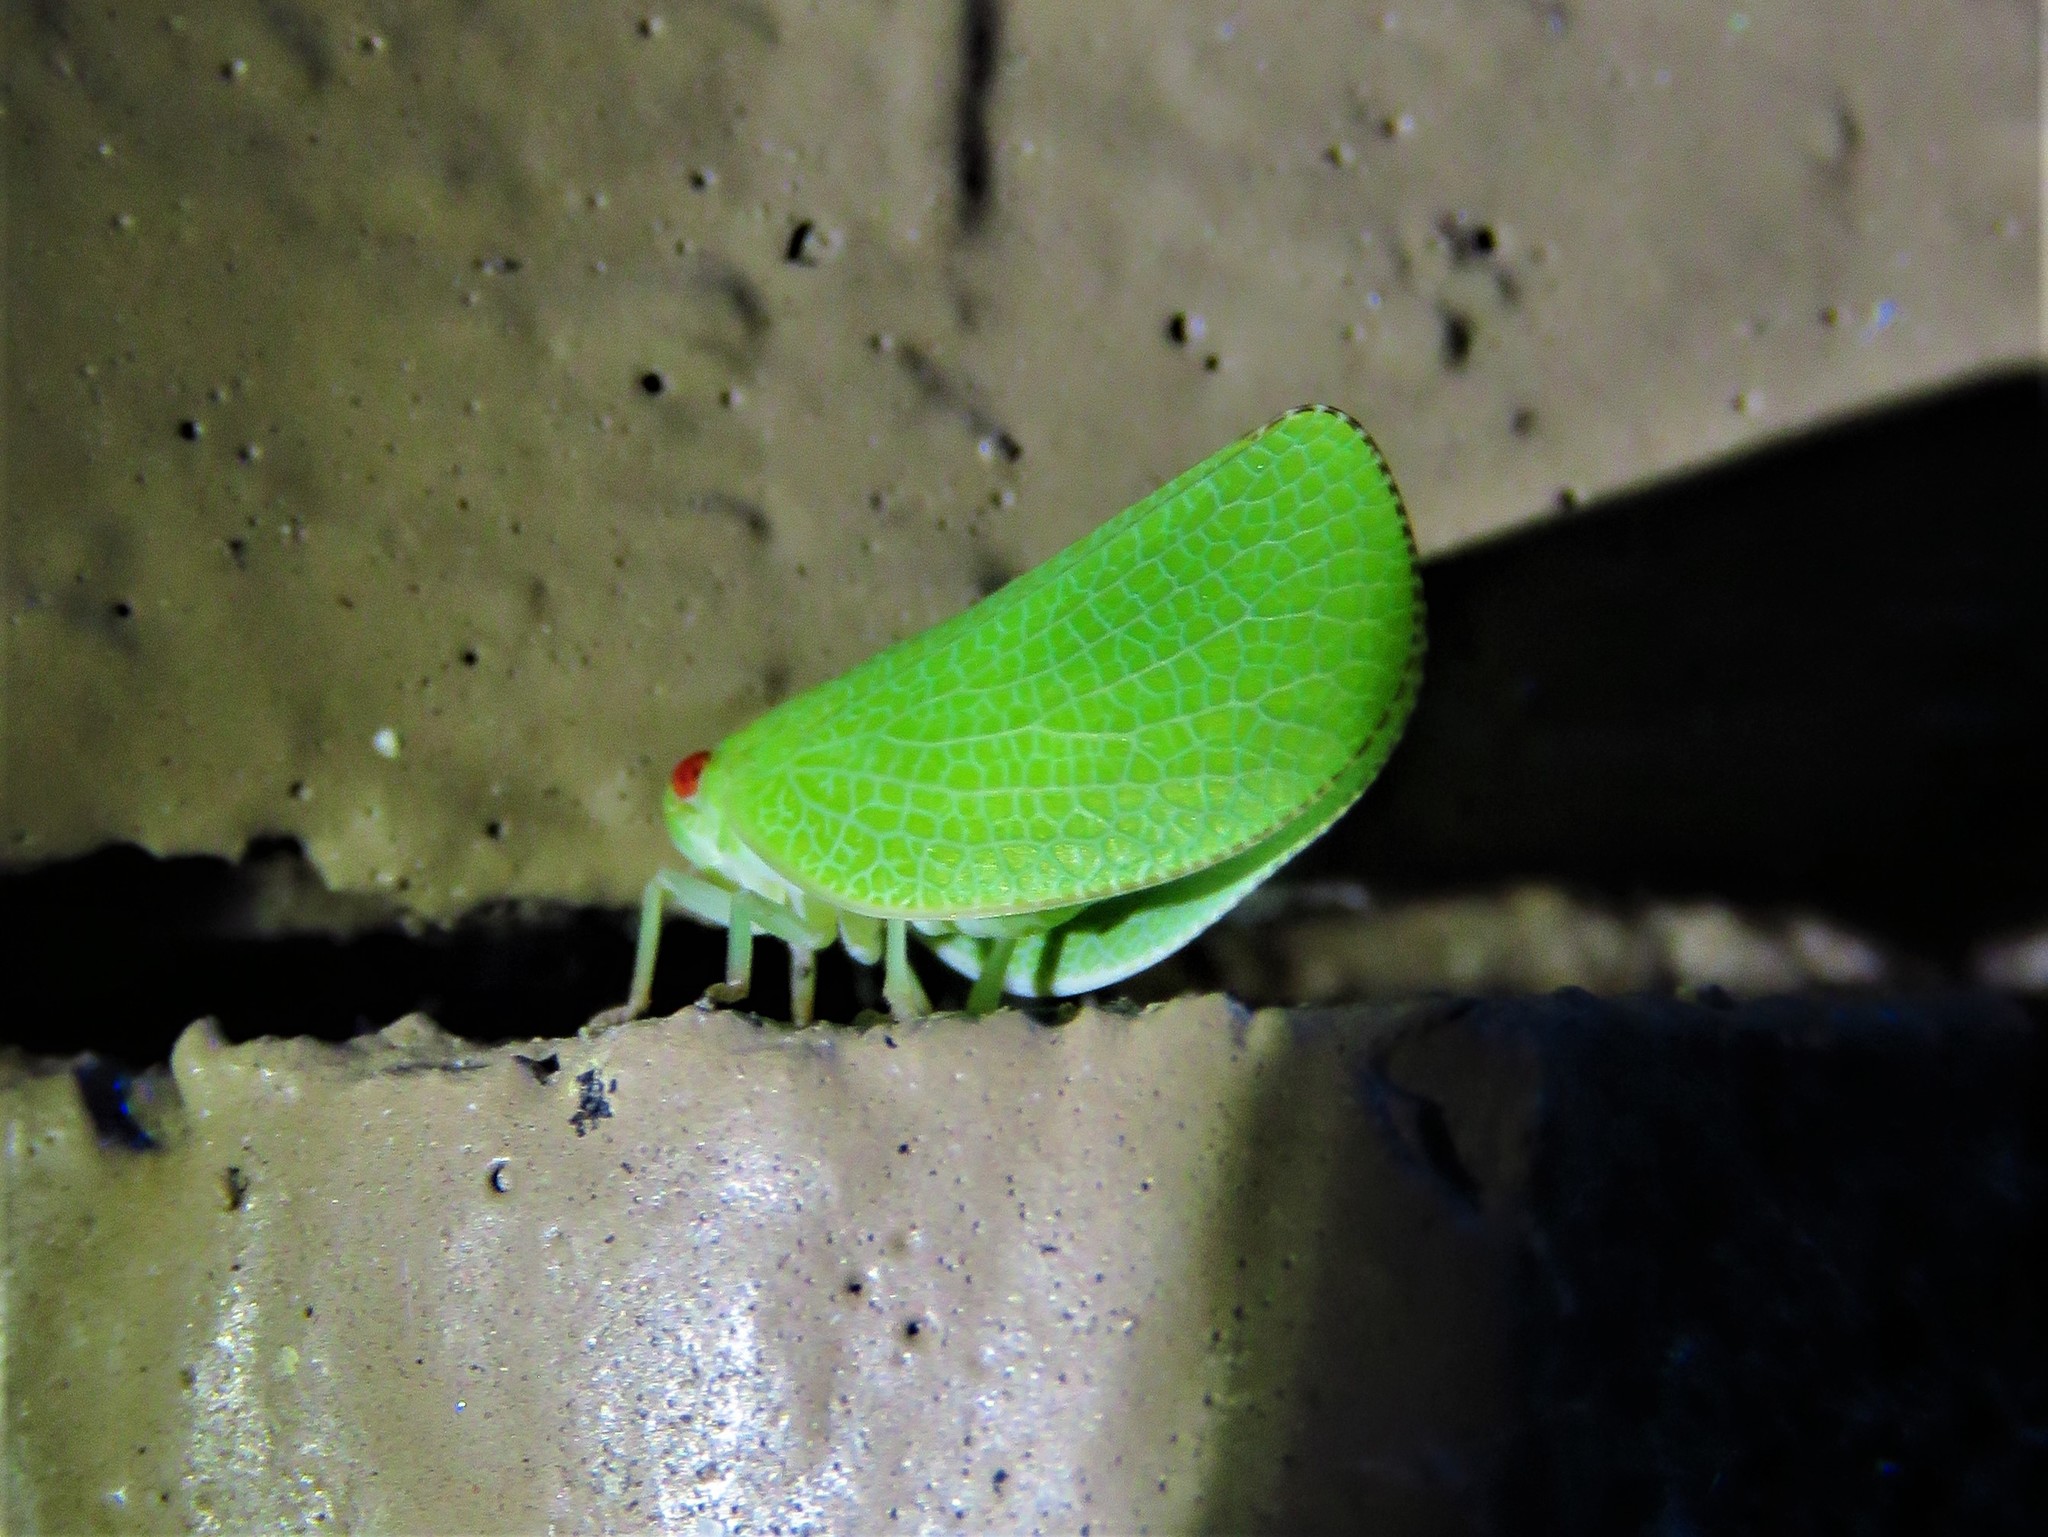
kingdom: Animalia
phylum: Arthropoda
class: Insecta
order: Hemiptera
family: Acanaloniidae
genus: Acanalonia
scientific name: Acanalonia conica
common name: Green cone-headed planthopper
